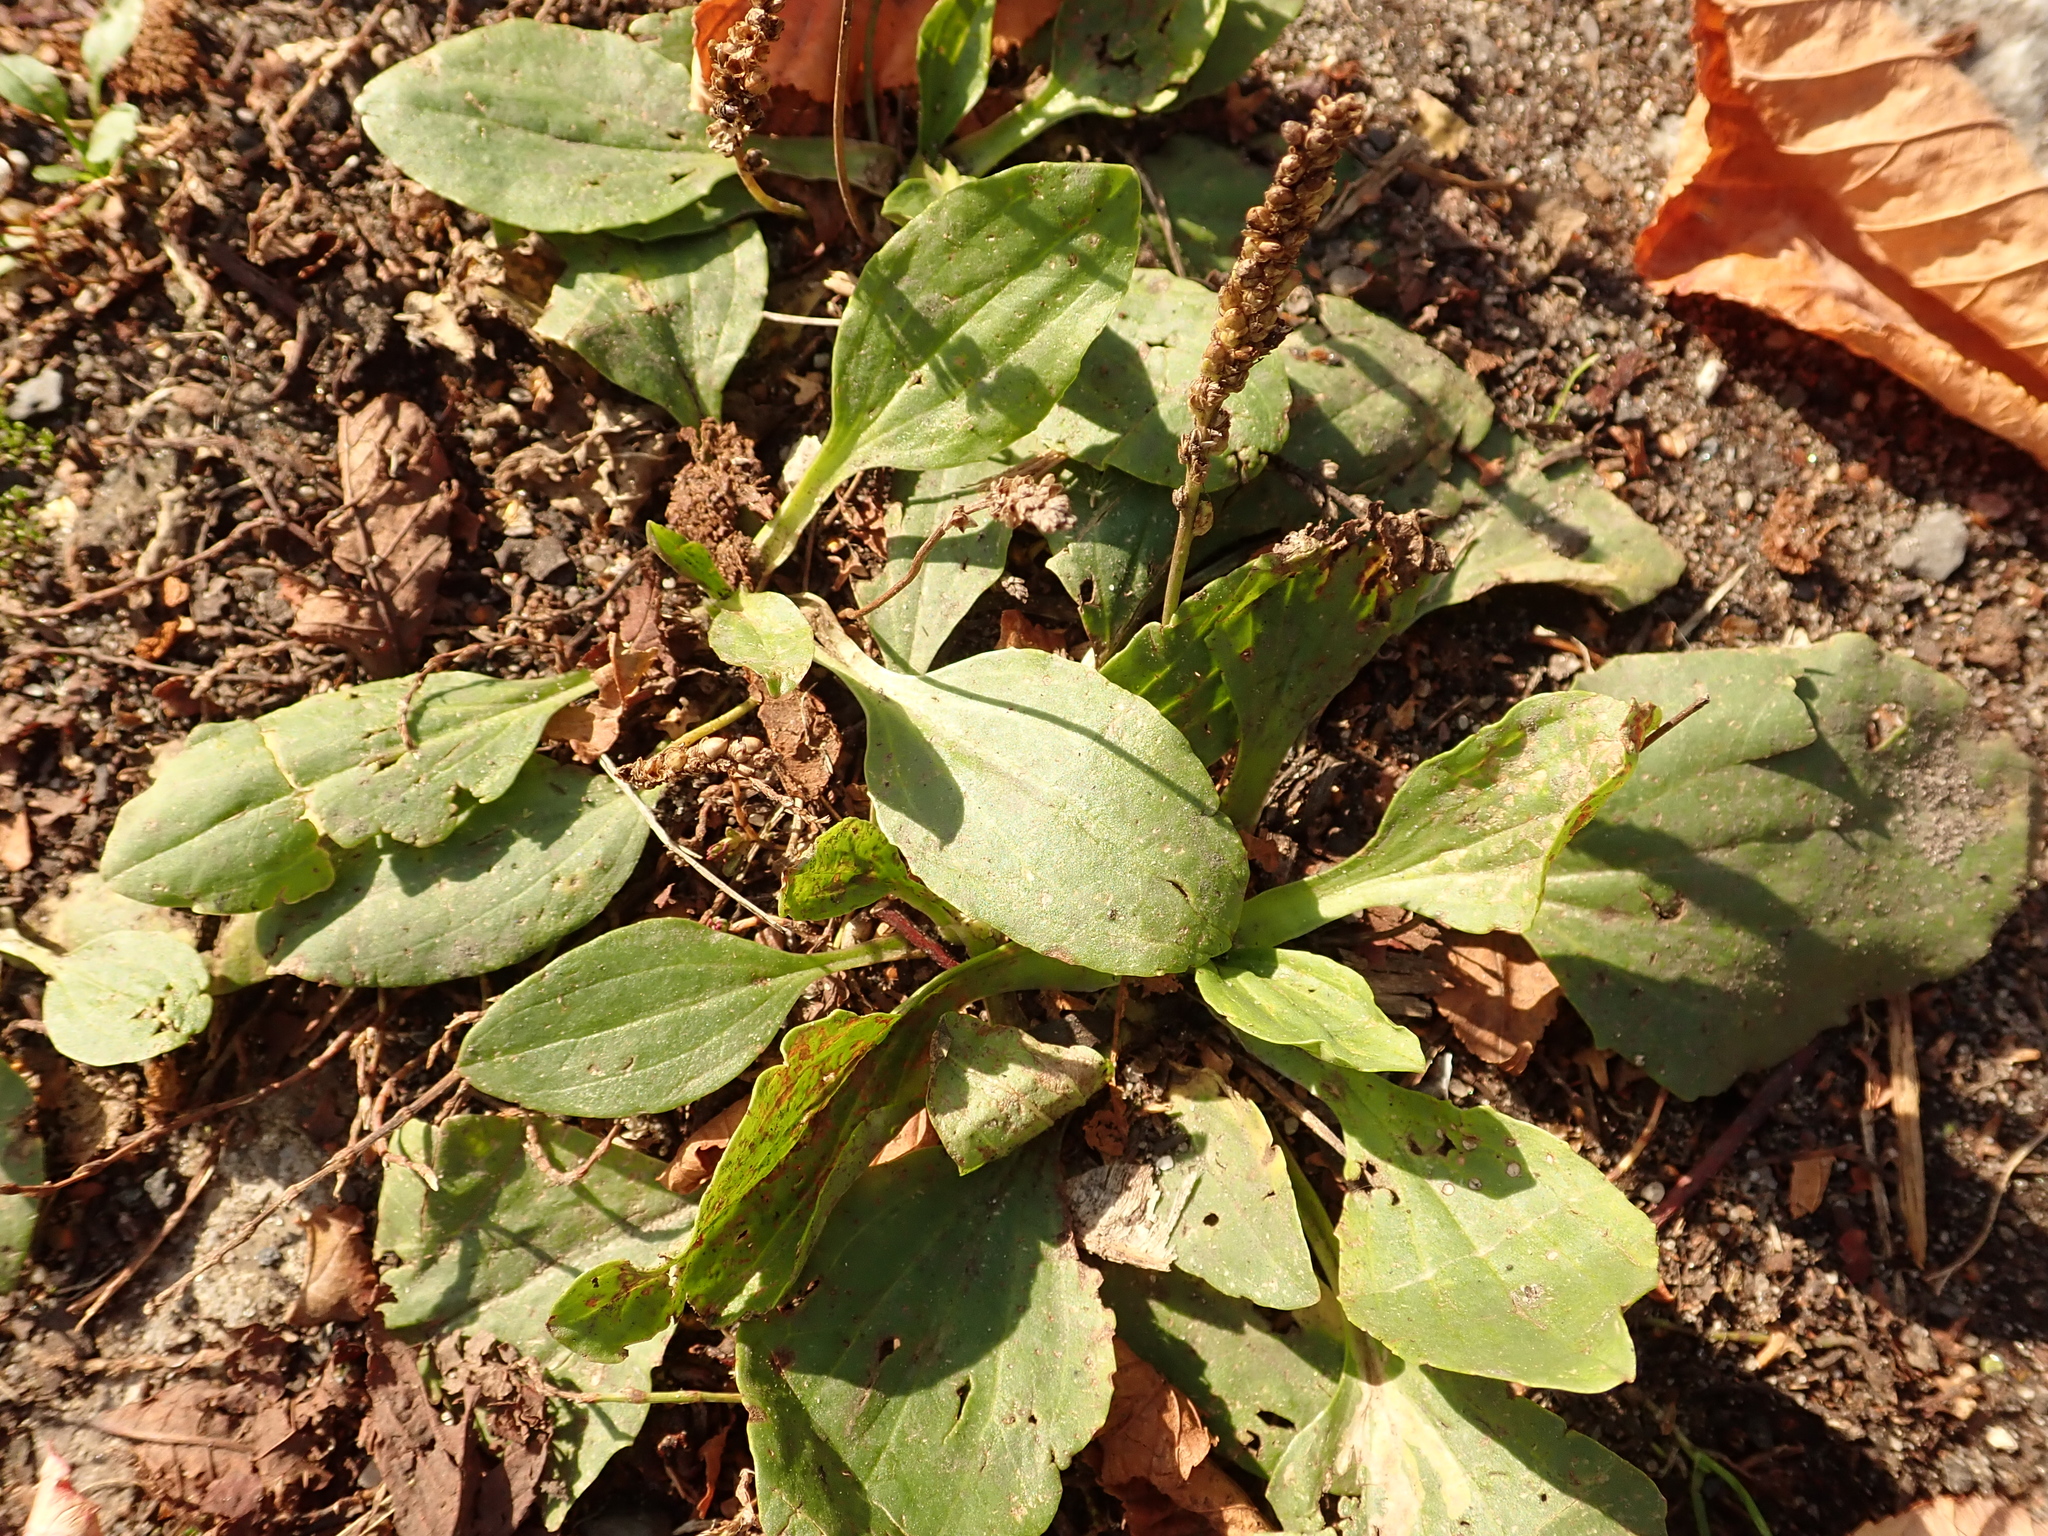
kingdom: Plantae
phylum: Tracheophyta
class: Magnoliopsida
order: Lamiales
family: Plantaginaceae
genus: Plantago
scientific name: Plantago major
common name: Common plantain
